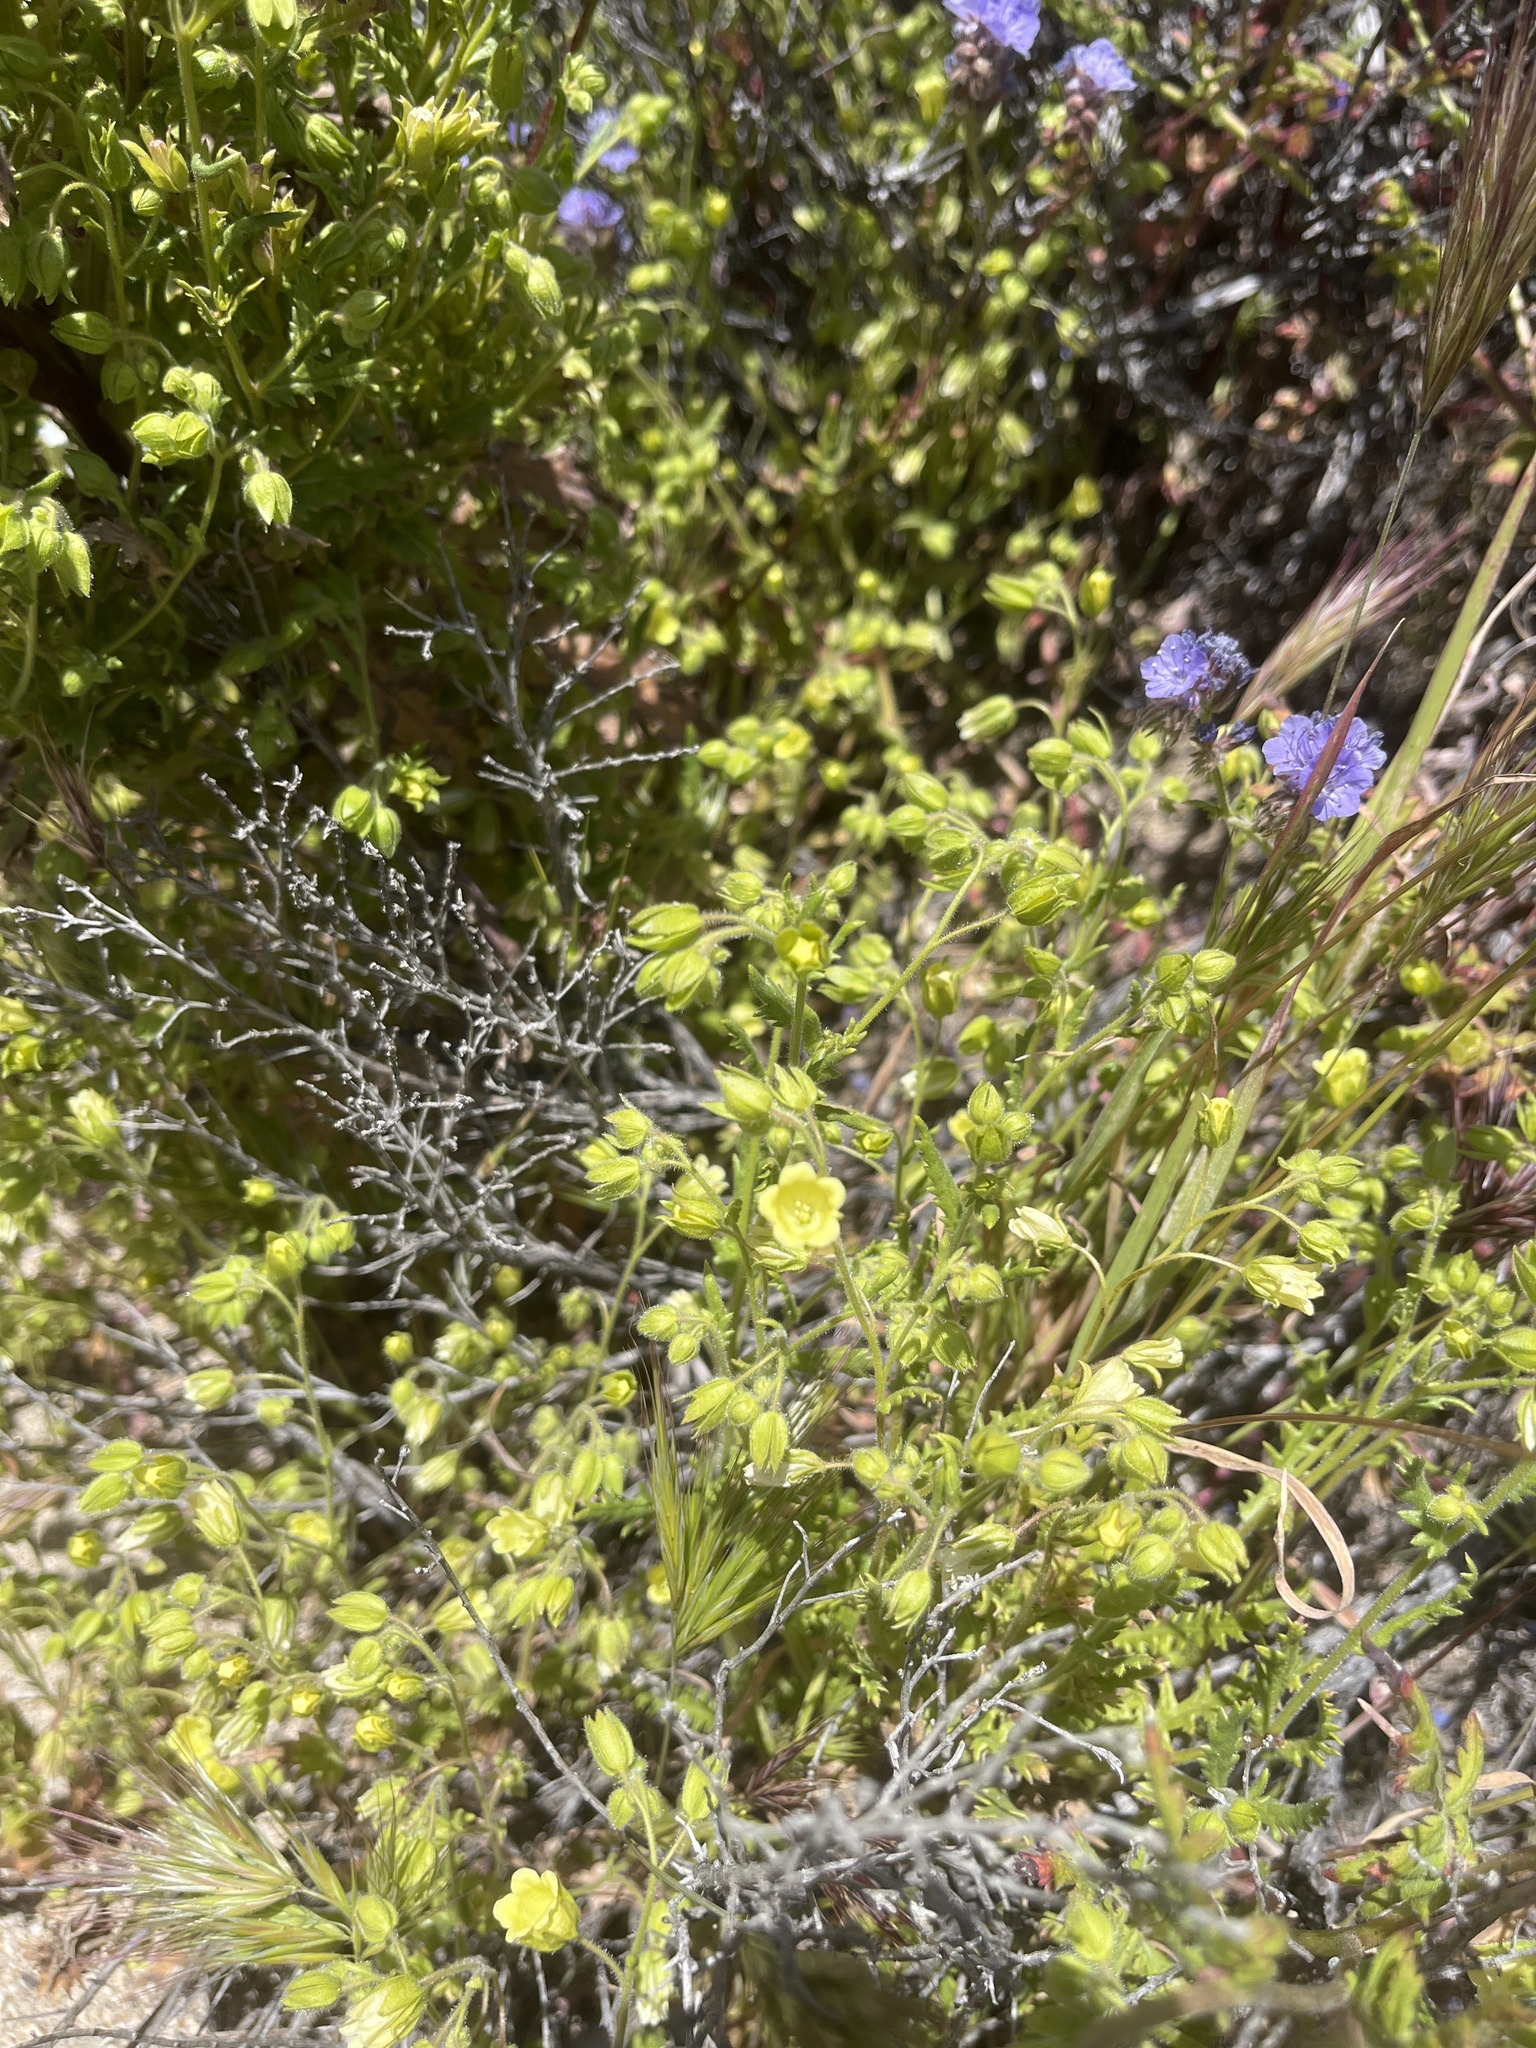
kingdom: Plantae
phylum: Tracheophyta
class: Magnoliopsida
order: Boraginales
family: Hydrophyllaceae
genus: Emmenanthe
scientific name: Emmenanthe penduliflora
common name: Whispering-bells
